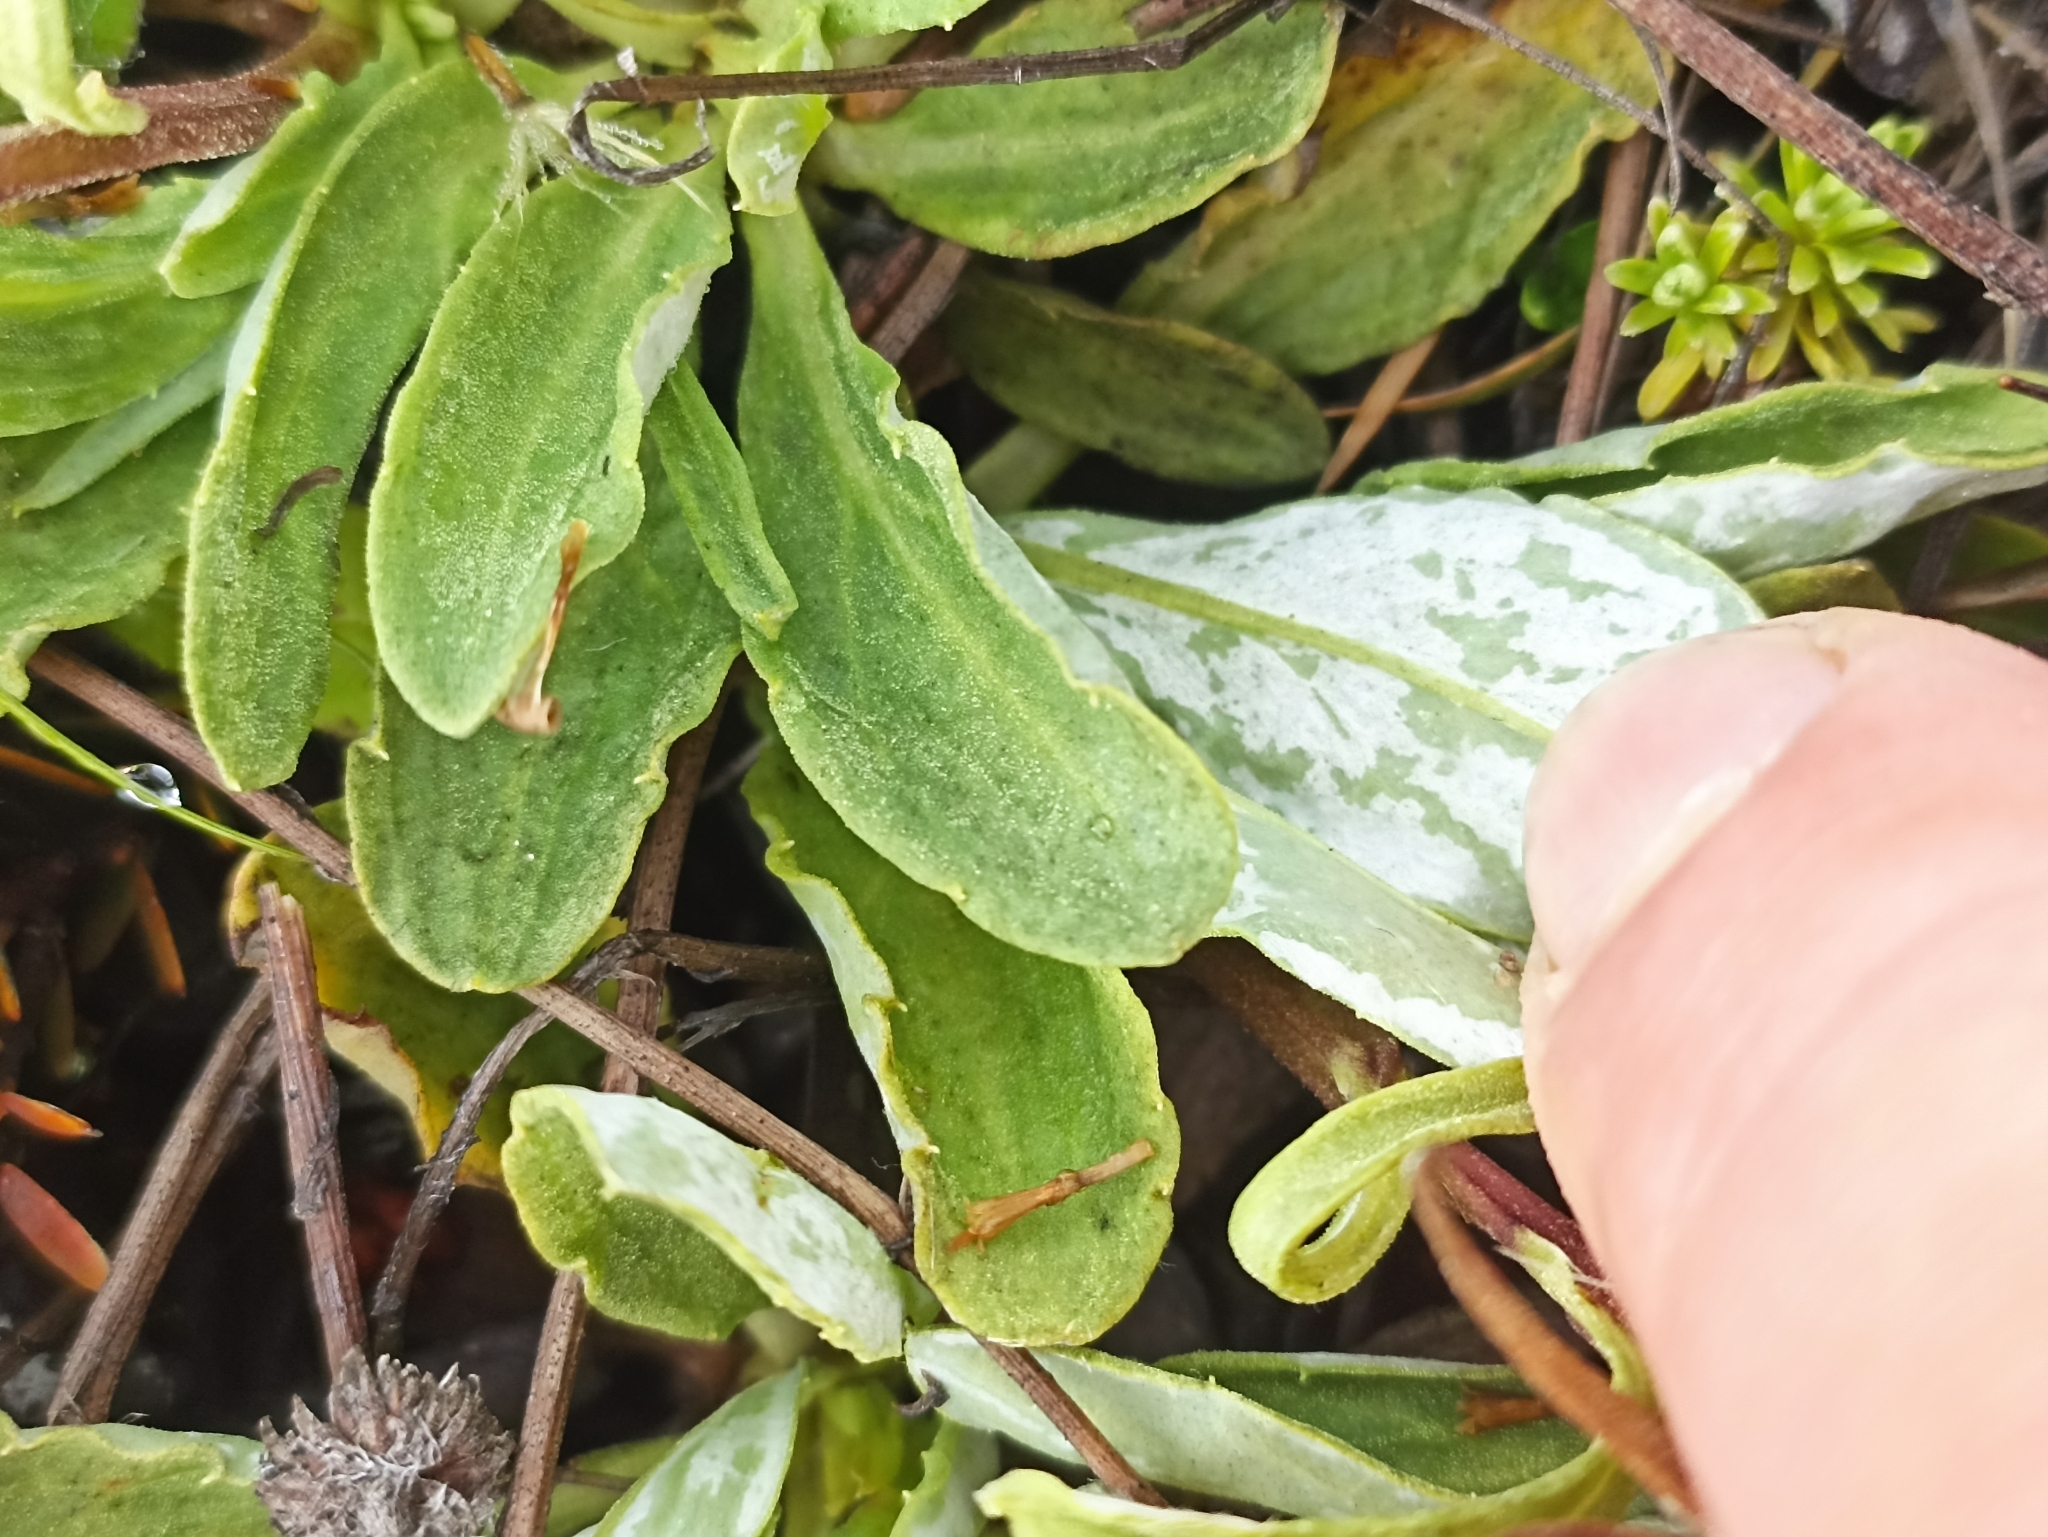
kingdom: Plantae
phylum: Tracheophyta
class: Magnoliopsida
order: Asterales
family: Asteraceae
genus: Celmisia
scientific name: Celmisia durietzii
